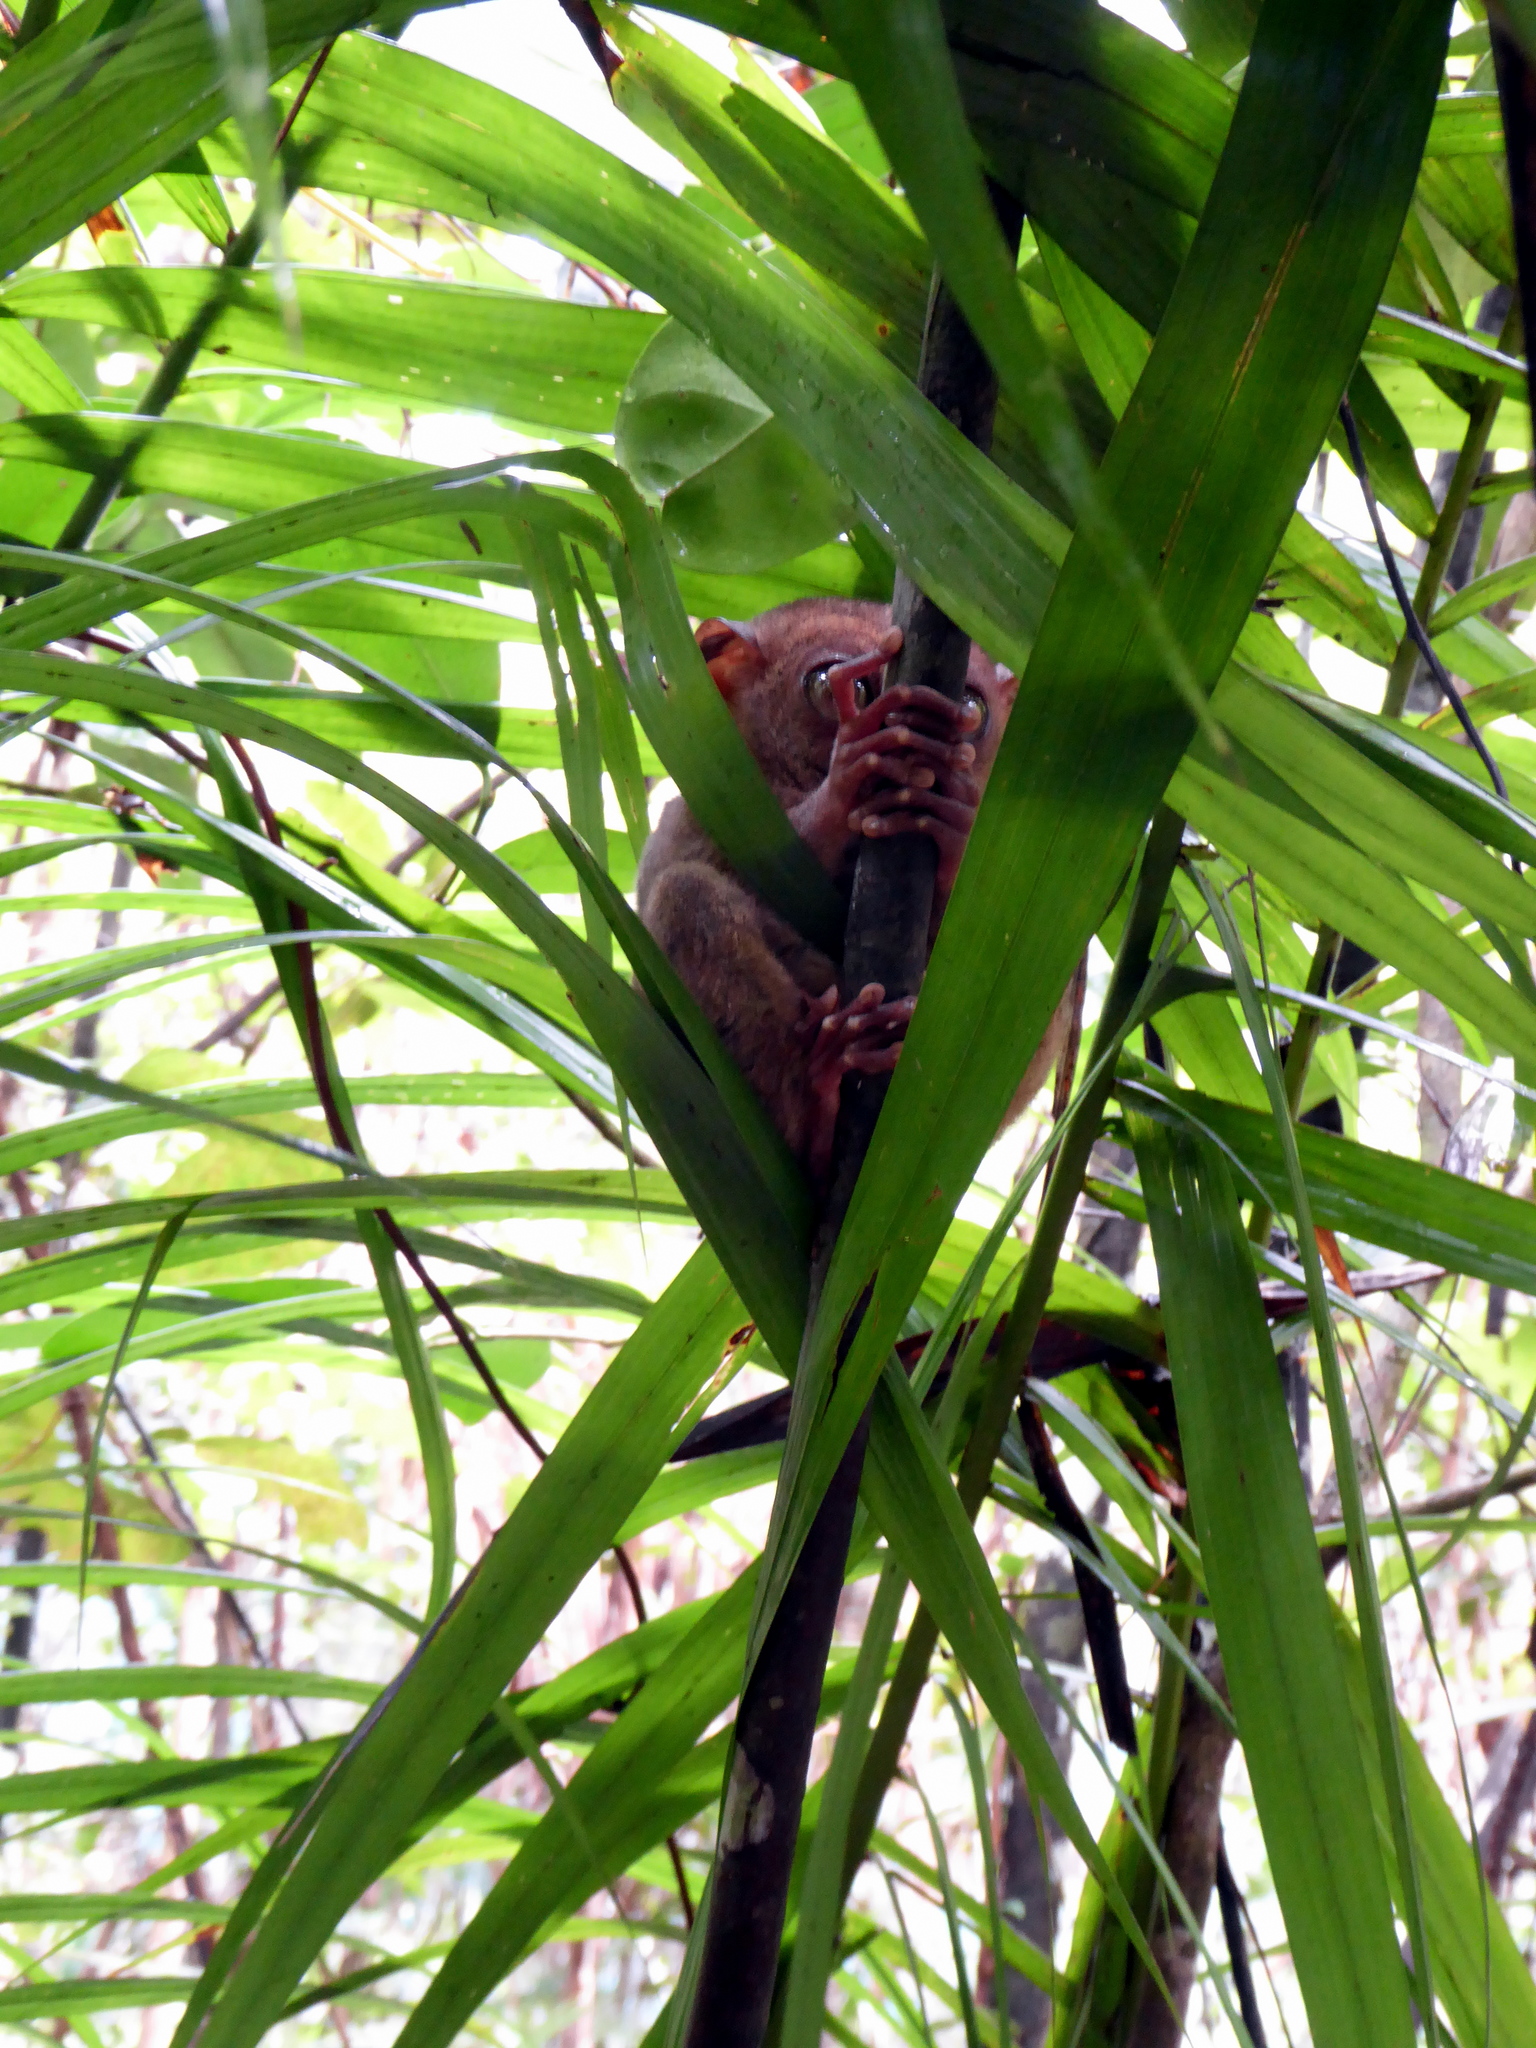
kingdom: Animalia
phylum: Chordata
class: Mammalia
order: Primates
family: Tarsiidae
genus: Carlito
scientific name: Carlito syrichta
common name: Philippine tarsier
